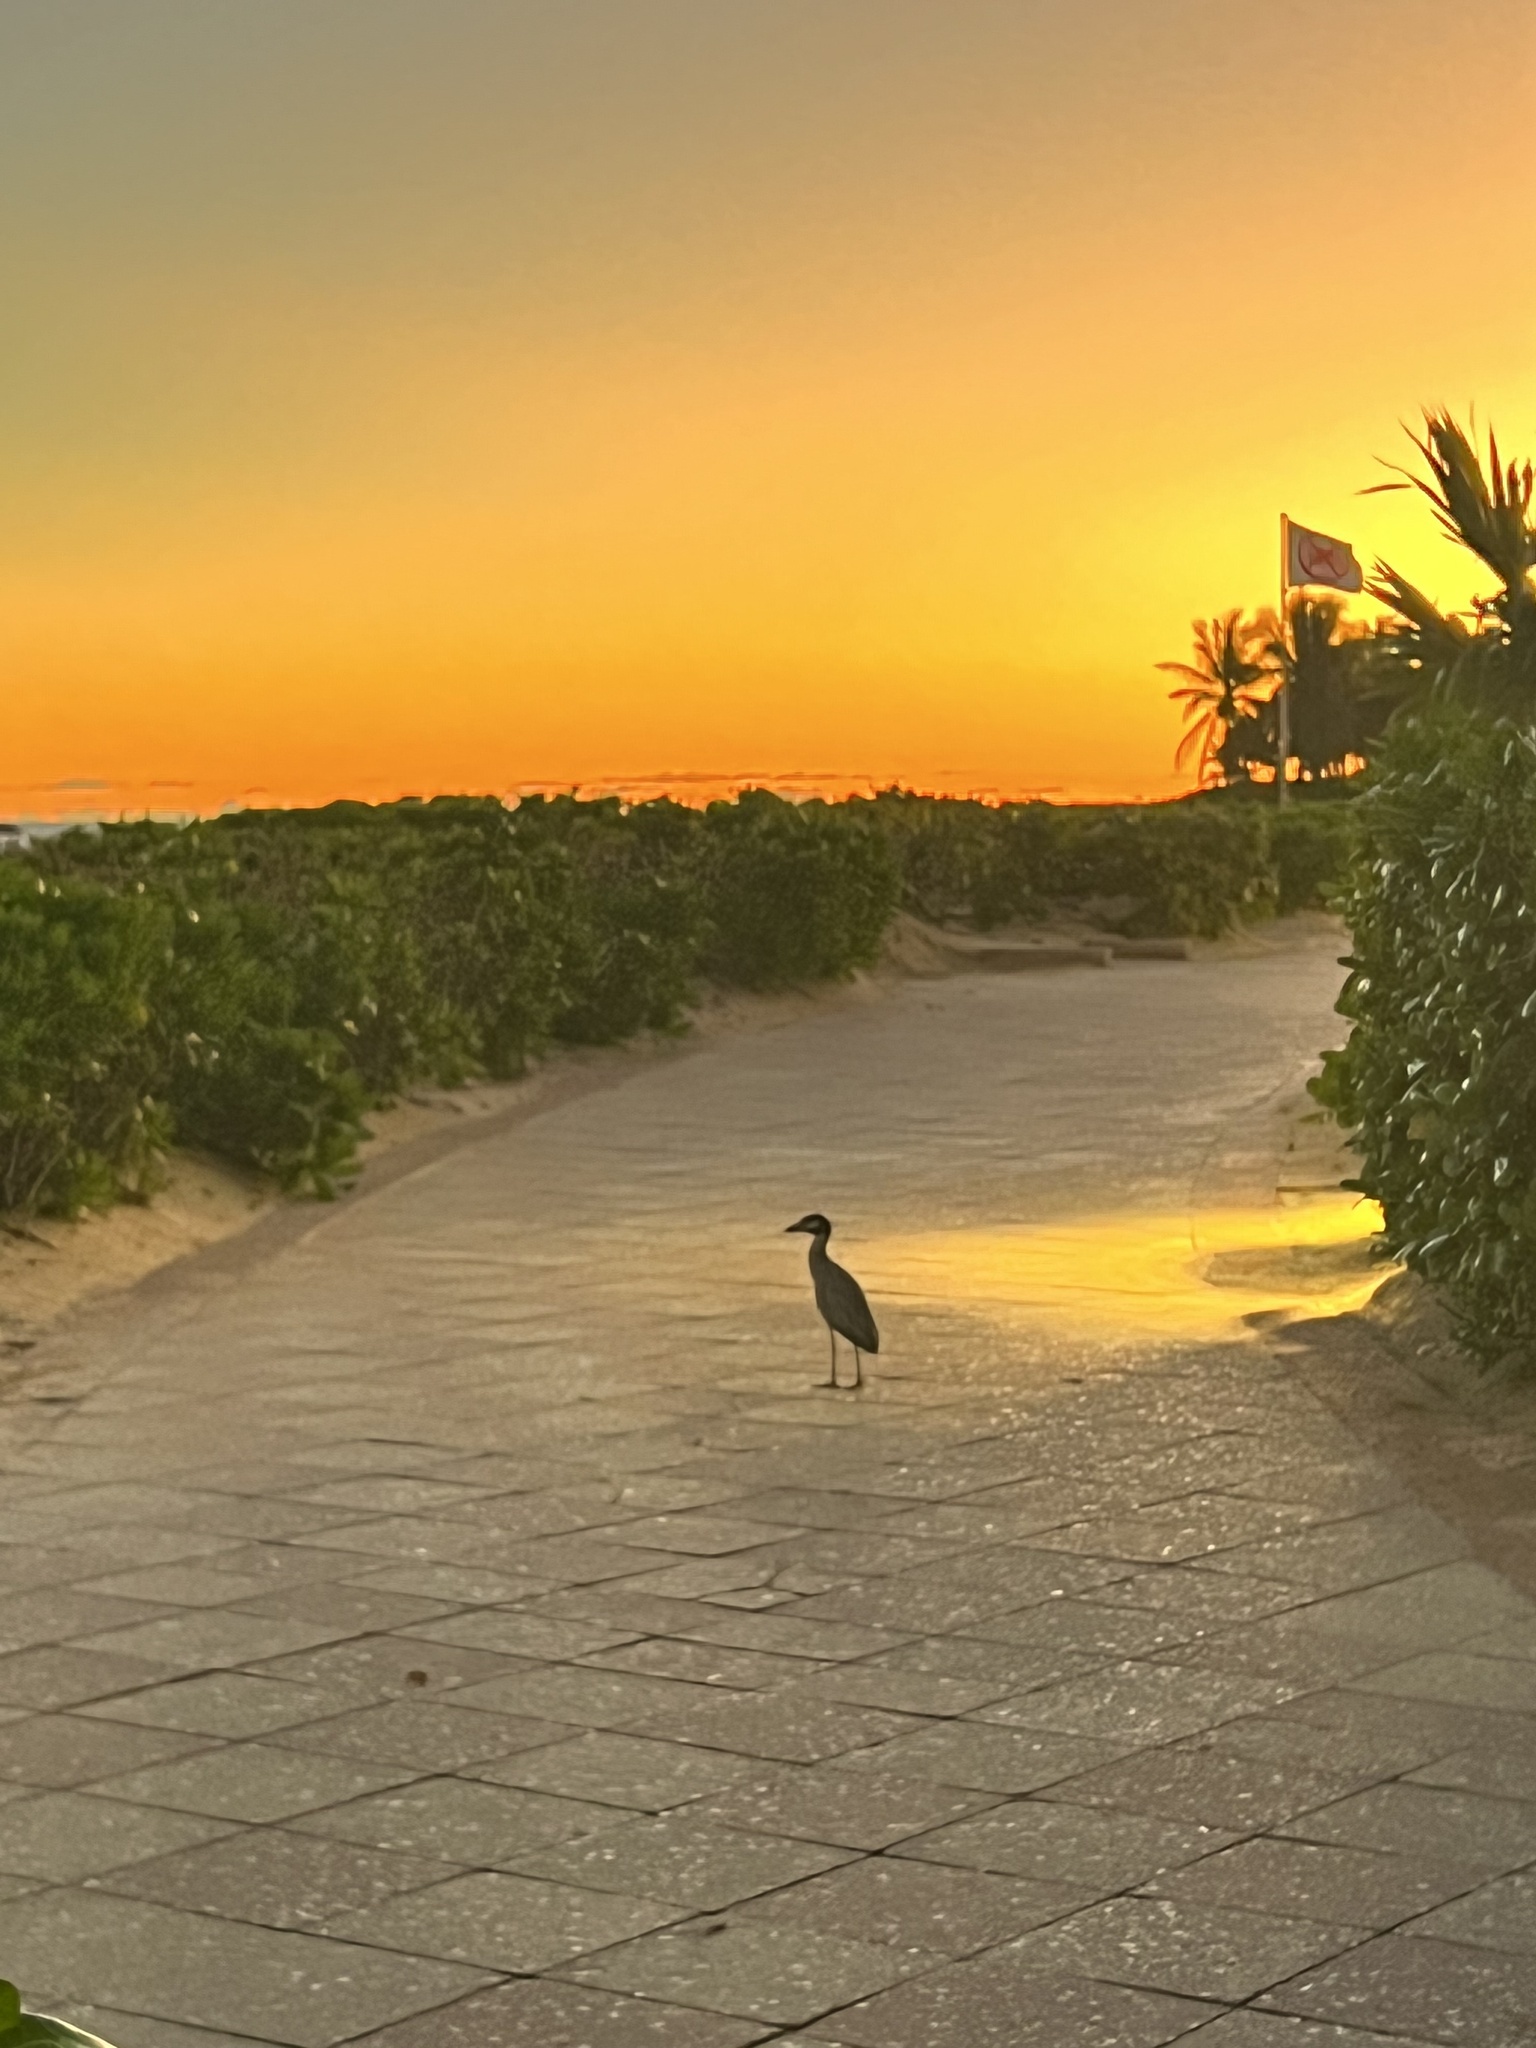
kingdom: Animalia
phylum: Chordata
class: Aves
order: Pelecaniformes
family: Ardeidae
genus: Nyctanassa
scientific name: Nyctanassa violacea
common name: Yellow-crowned night heron
